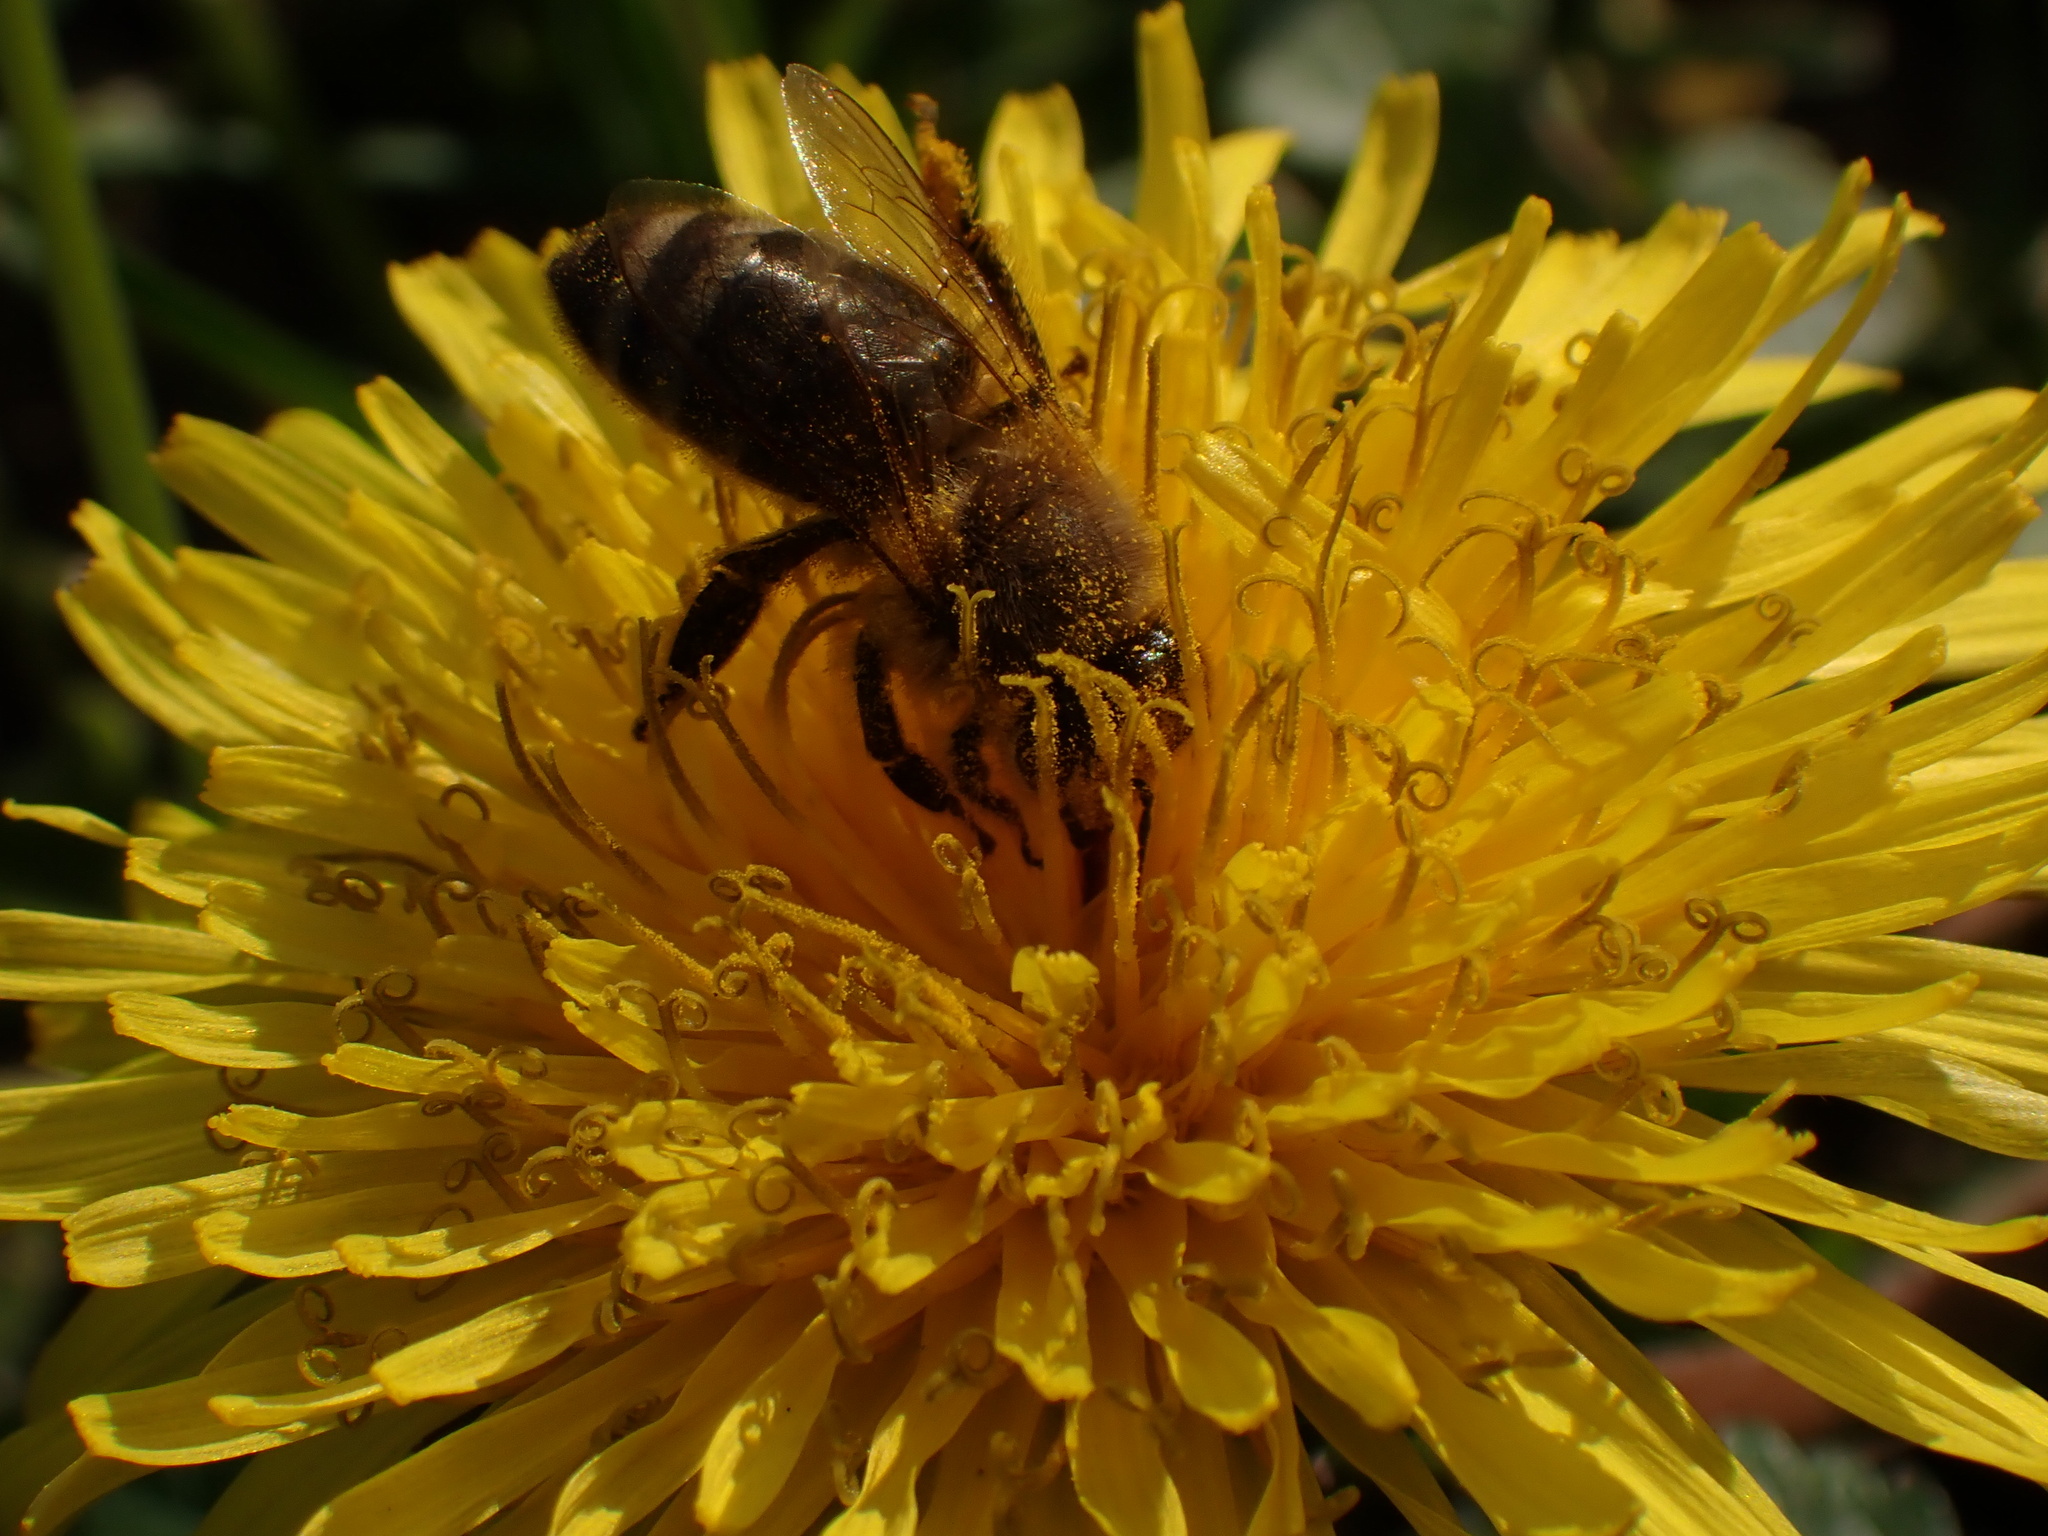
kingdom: Animalia
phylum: Arthropoda
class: Insecta
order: Hymenoptera
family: Apidae
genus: Apis
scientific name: Apis mellifera
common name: Honey bee
